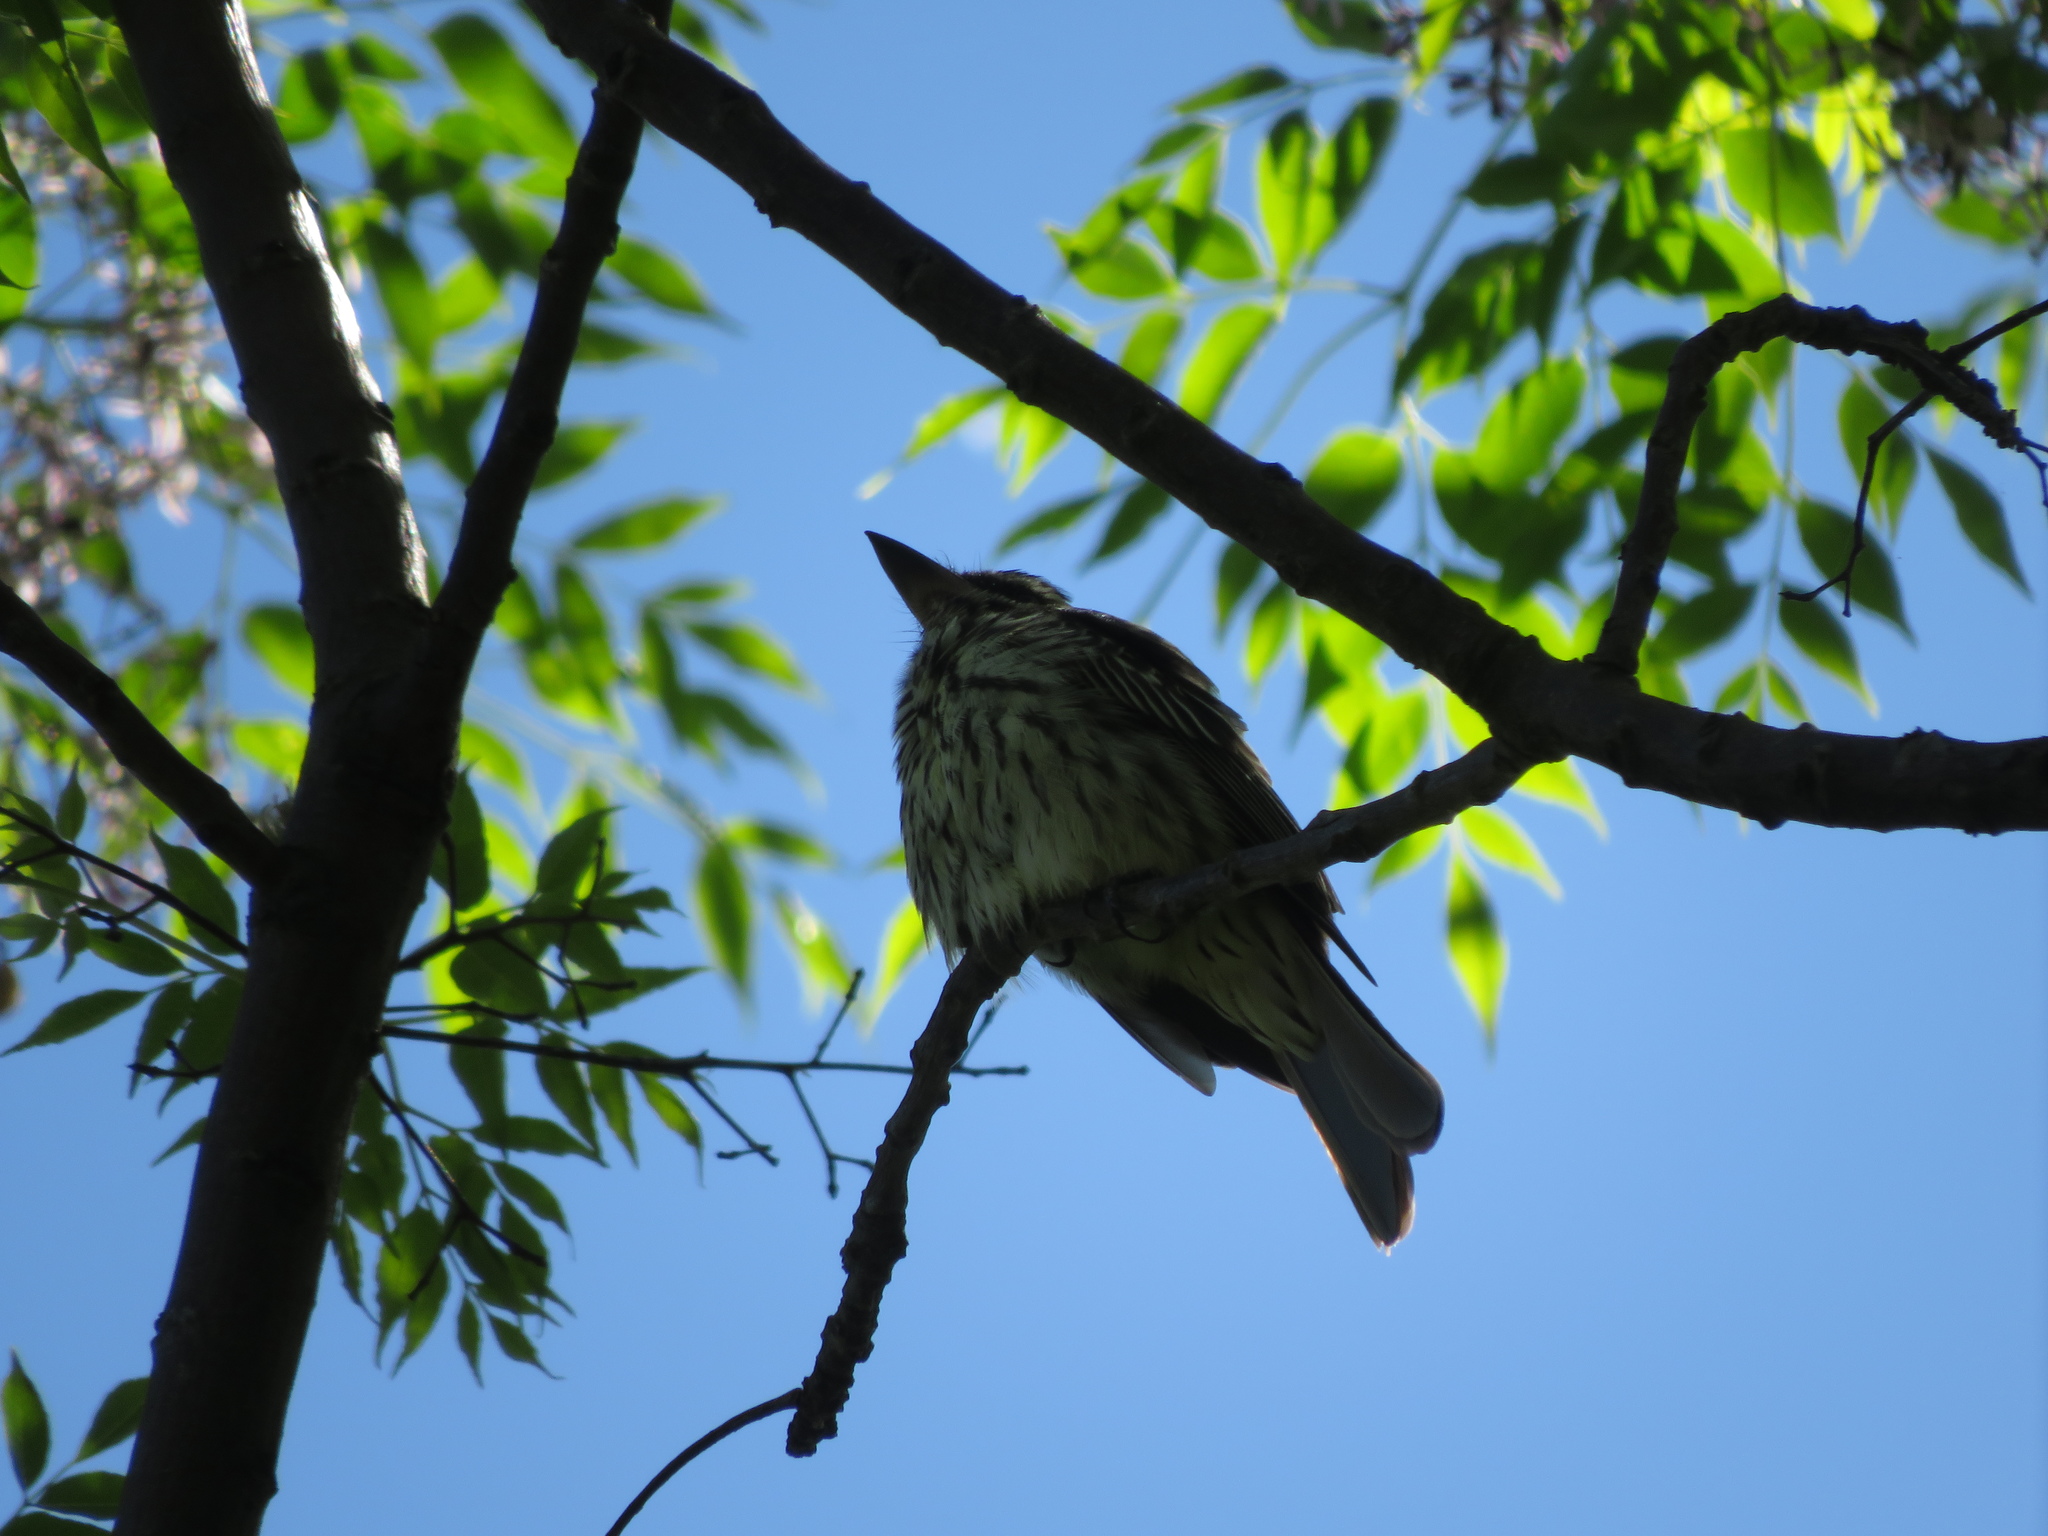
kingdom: Animalia
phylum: Chordata
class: Aves
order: Passeriformes
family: Tyrannidae
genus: Myiodynastes
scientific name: Myiodynastes maculatus
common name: Streaked flycatcher
